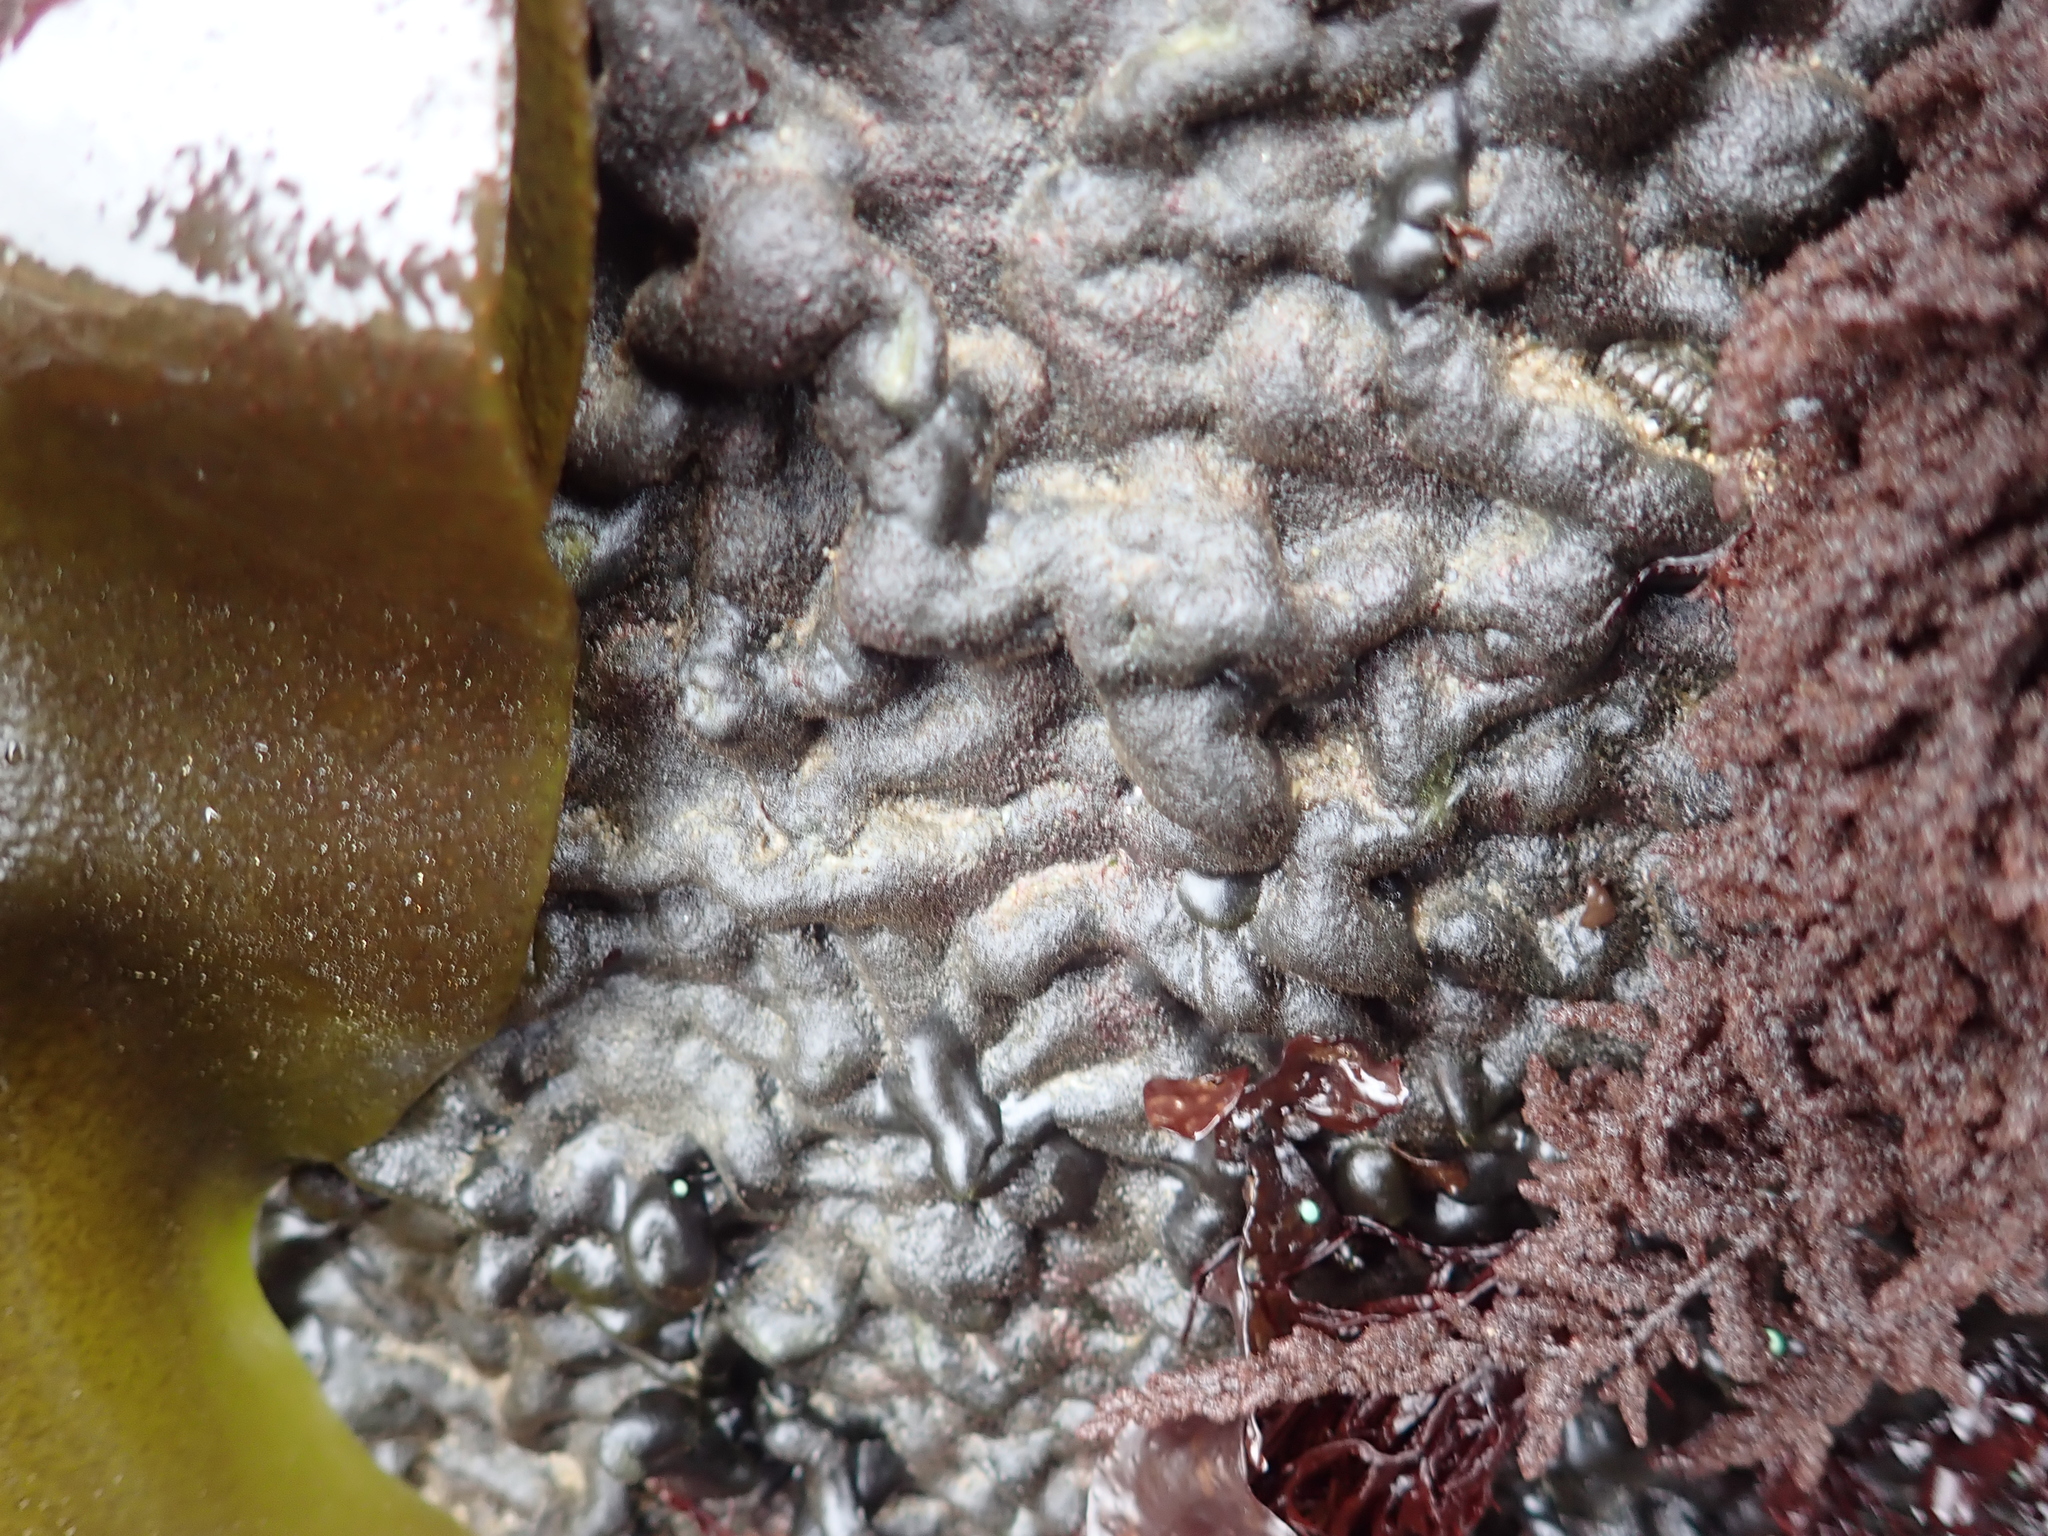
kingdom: Plantae
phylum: Chlorophyta
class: Ulvophyceae
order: Bryopsidales
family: Codiaceae
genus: Codium
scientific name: Codium setchellii
